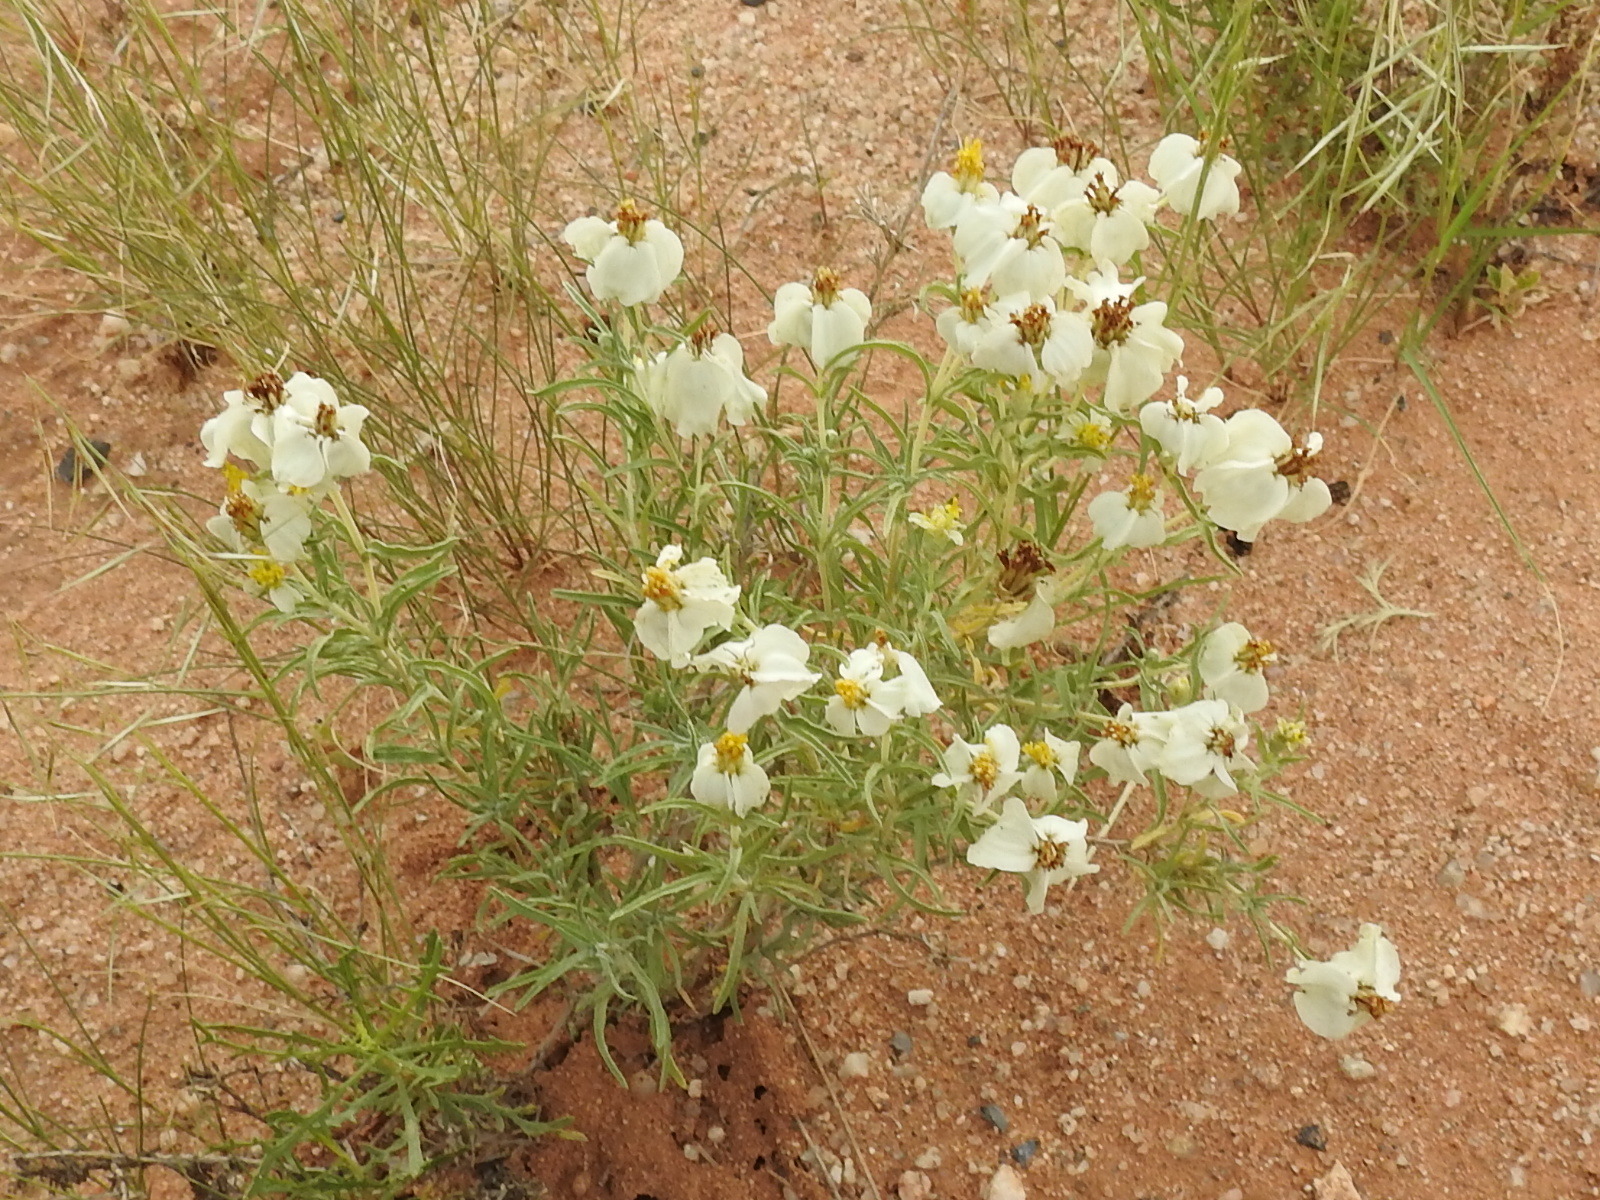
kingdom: Plantae
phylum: Tracheophyta
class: Magnoliopsida
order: Asterales
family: Asteraceae
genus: Zinnia
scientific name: Zinnia acerosa
